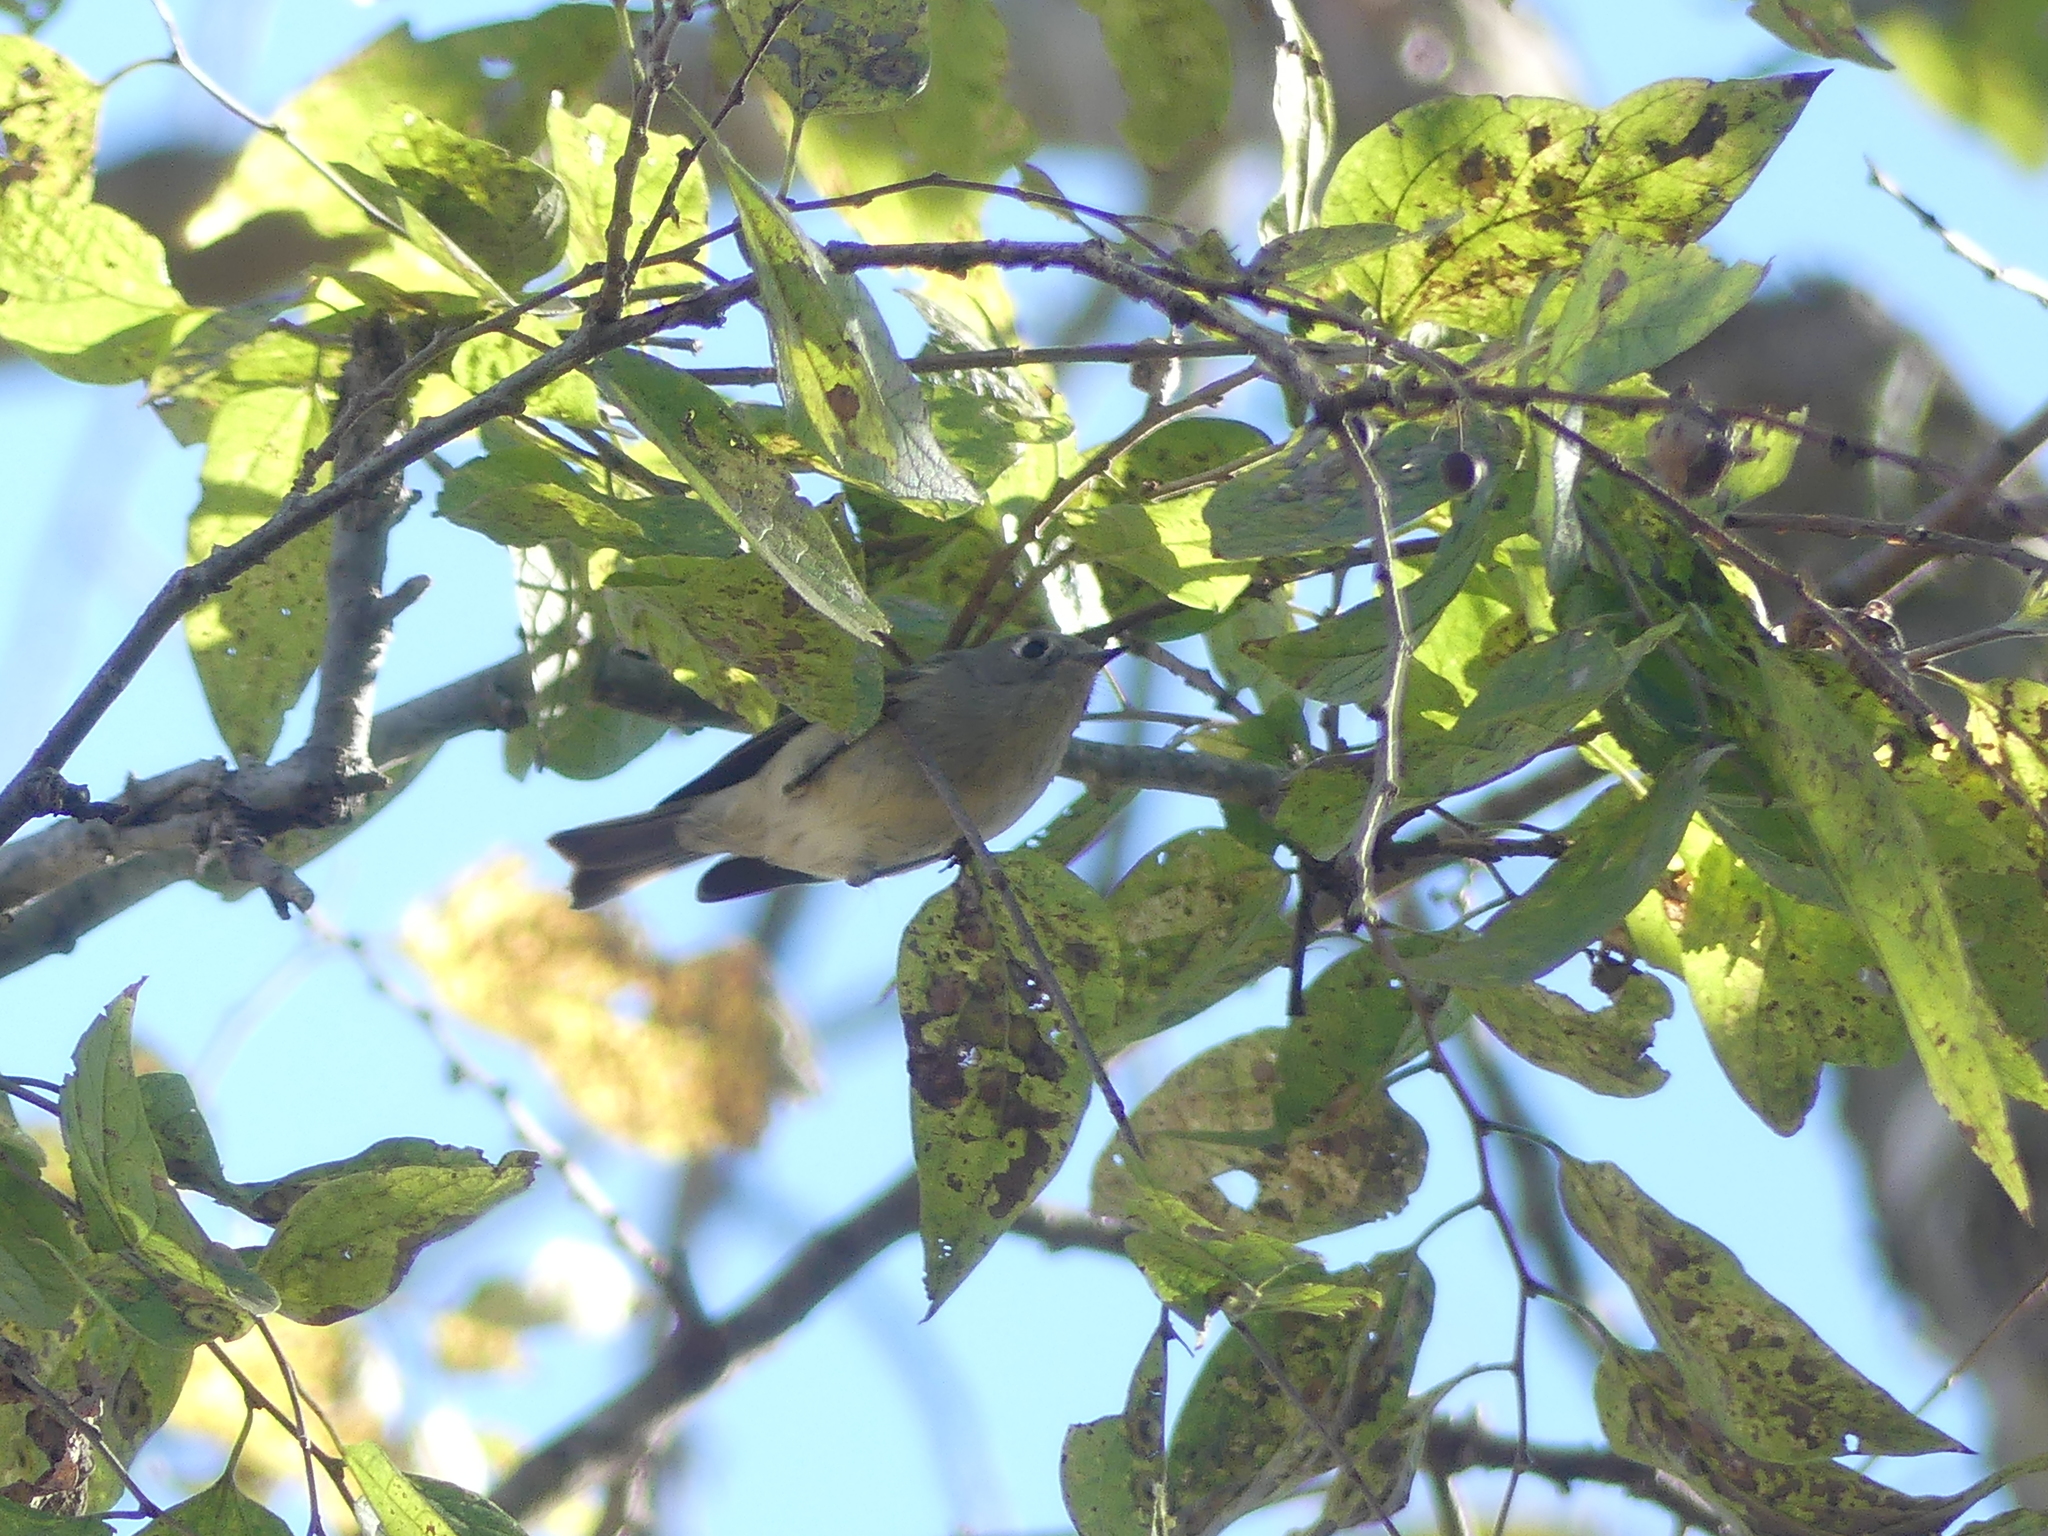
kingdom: Animalia
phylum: Chordata
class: Aves
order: Passeriformes
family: Regulidae
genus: Regulus
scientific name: Regulus calendula
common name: Ruby-crowned kinglet
